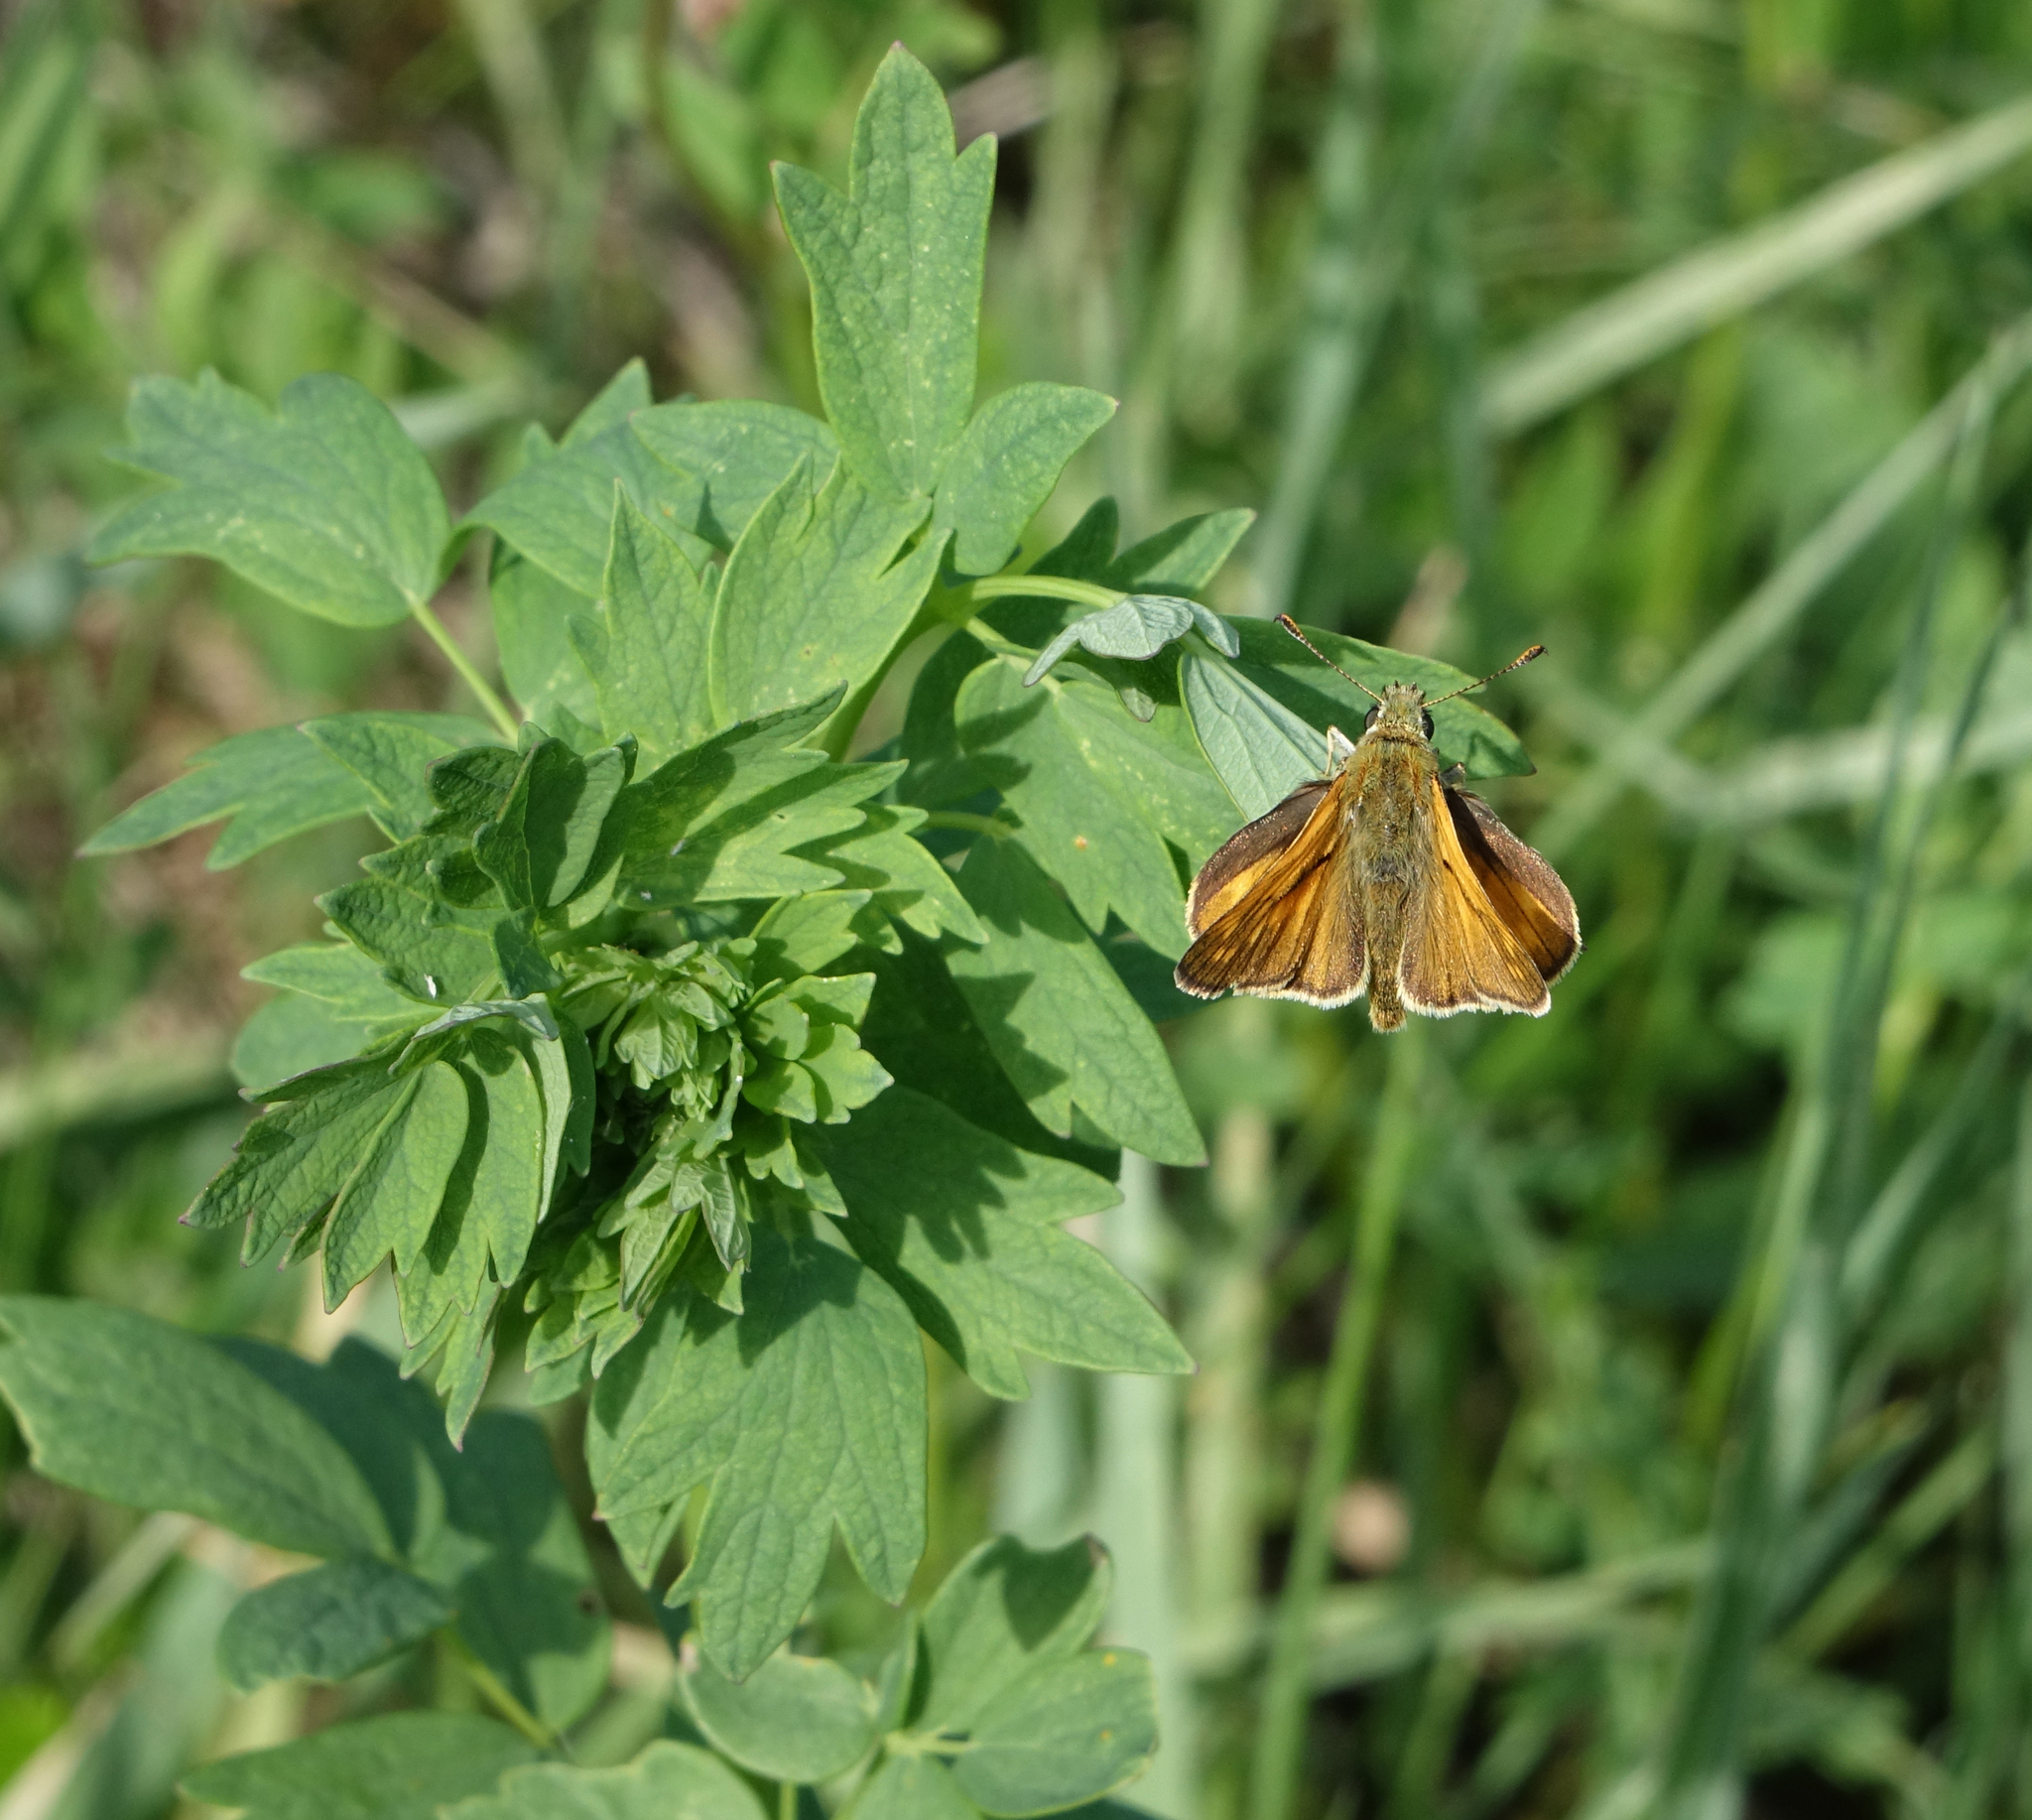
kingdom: Animalia
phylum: Arthropoda
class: Insecta
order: Lepidoptera
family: Hesperiidae
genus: Ochlodes
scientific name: Ochlodes venata
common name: Large skipper
